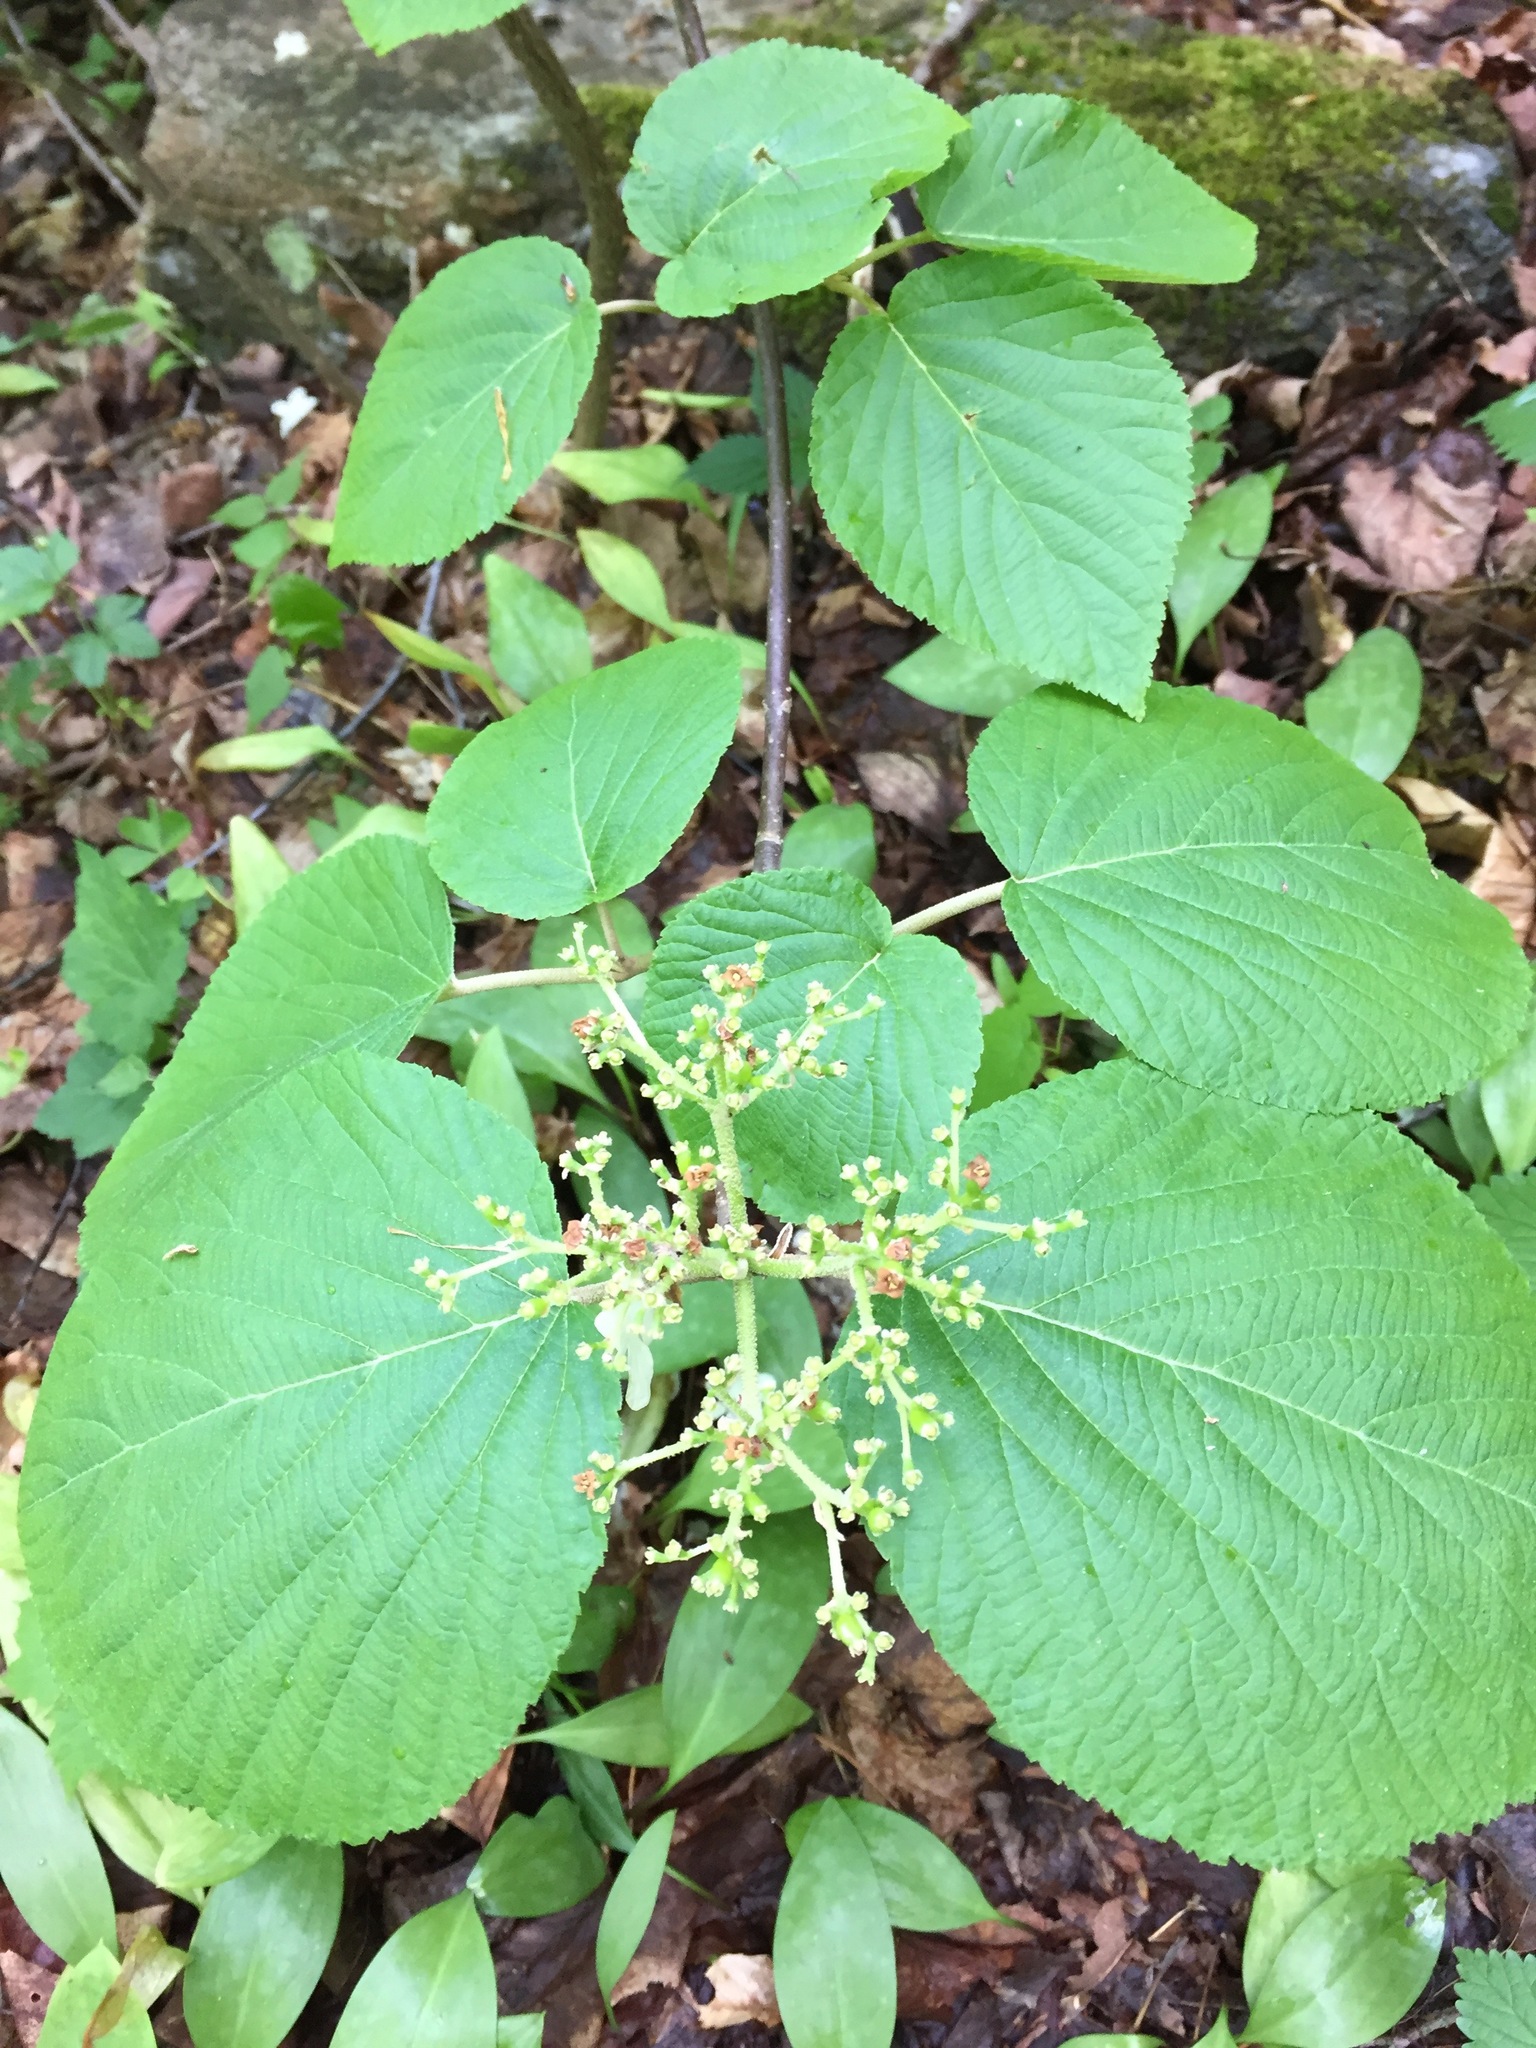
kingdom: Plantae
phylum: Tracheophyta
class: Magnoliopsida
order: Dipsacales
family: Viburnaceae
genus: Viburnum
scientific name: Viburnum lantanoides
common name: Hobblebush
